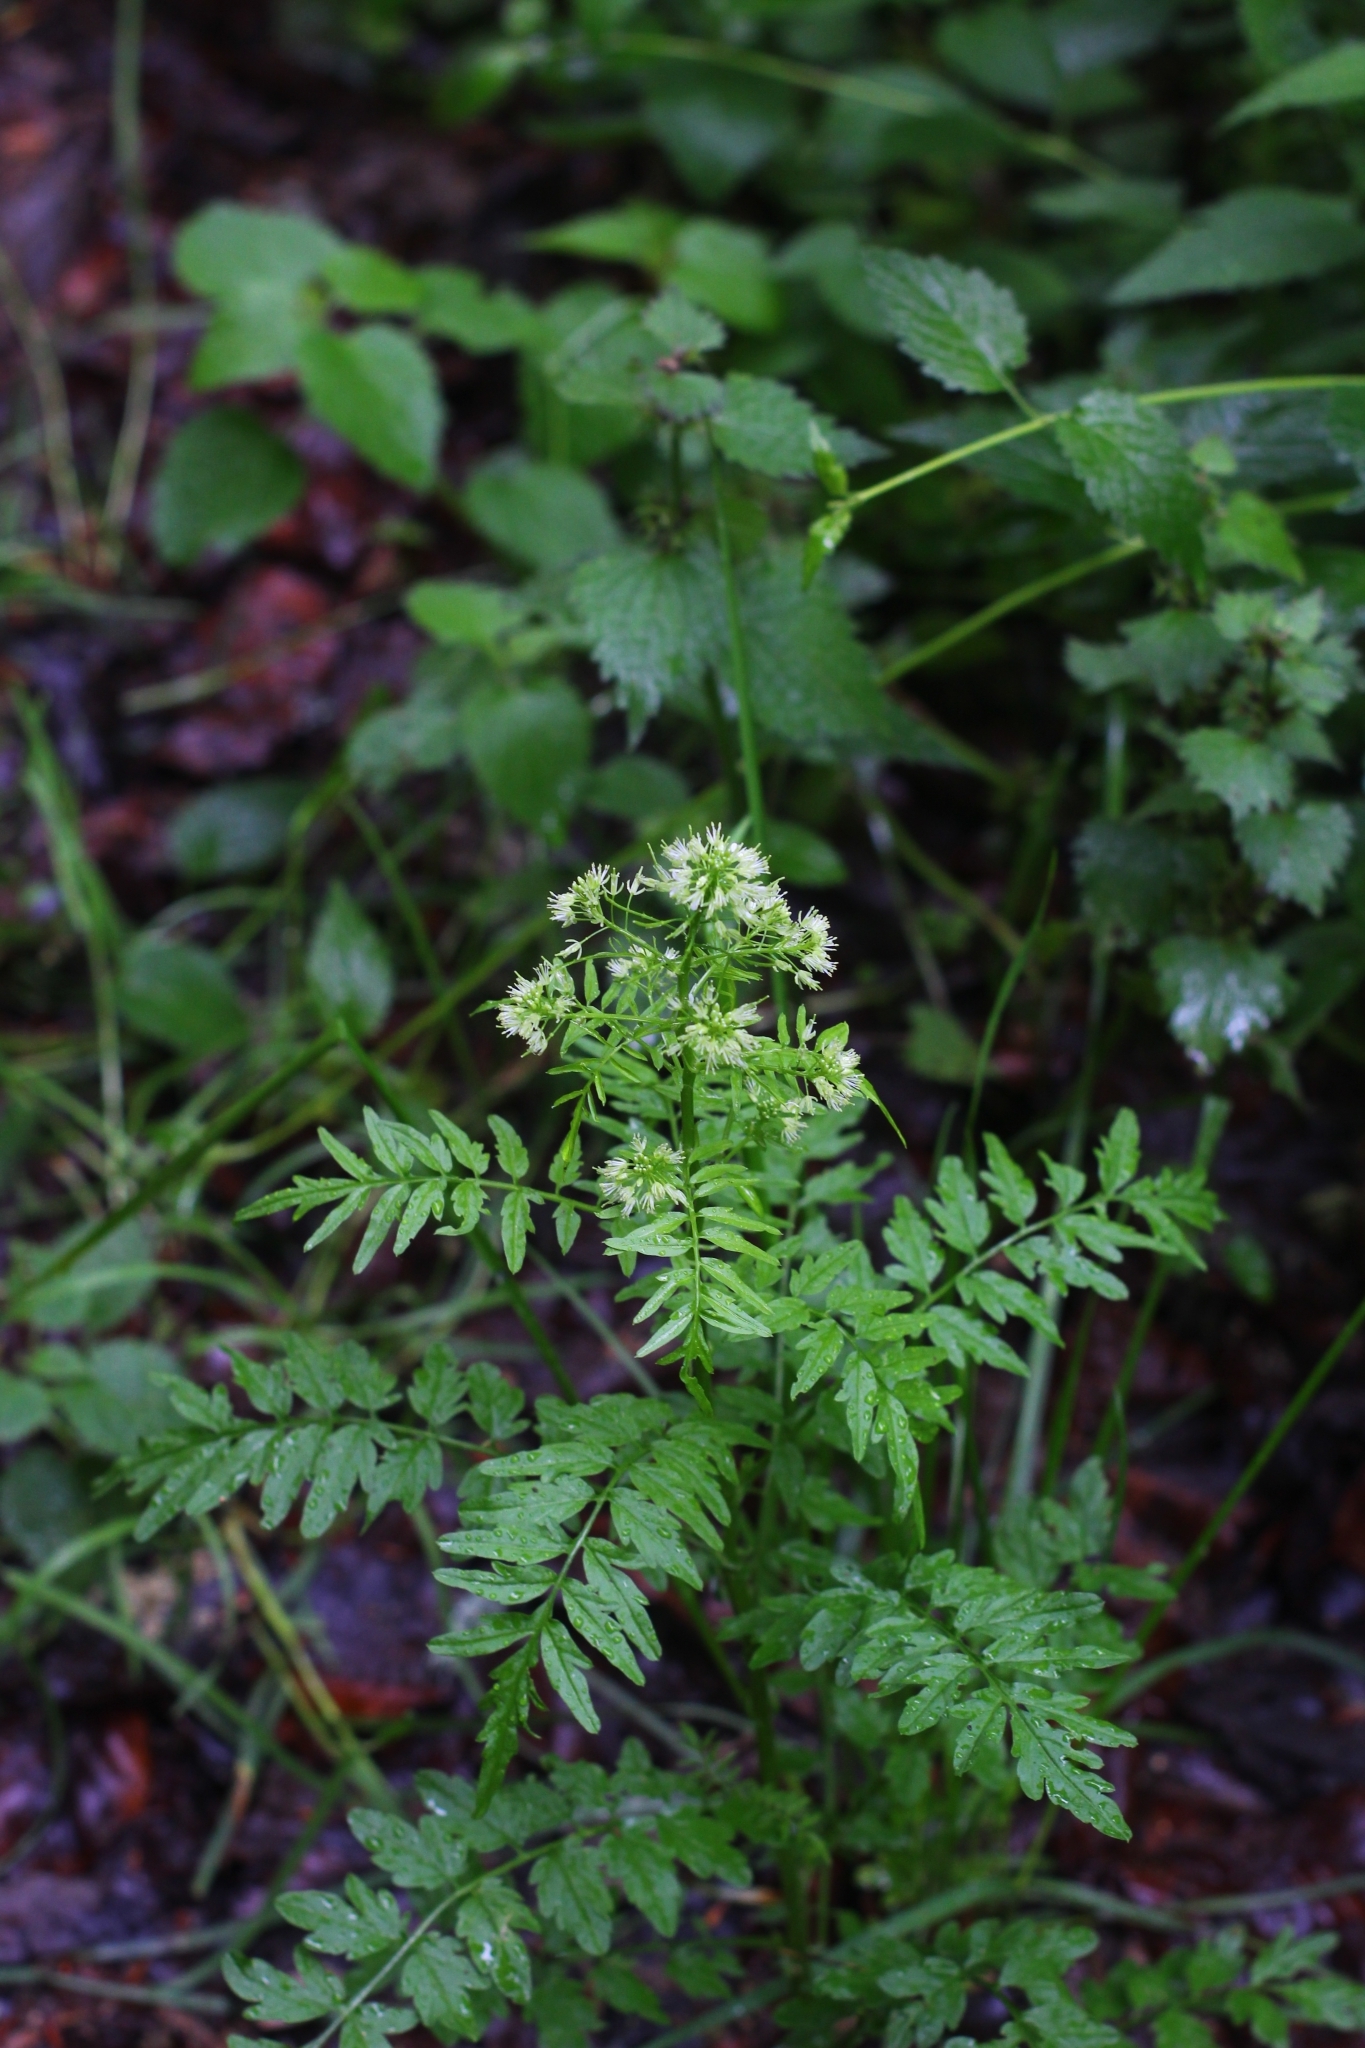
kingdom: Plantae
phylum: Tracheophyta
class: Magnoliopsida
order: Brassicales
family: Brassicaceae
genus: Cardamine
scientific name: Cardamine impatiens
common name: Narrow-leaved bitter-cress
